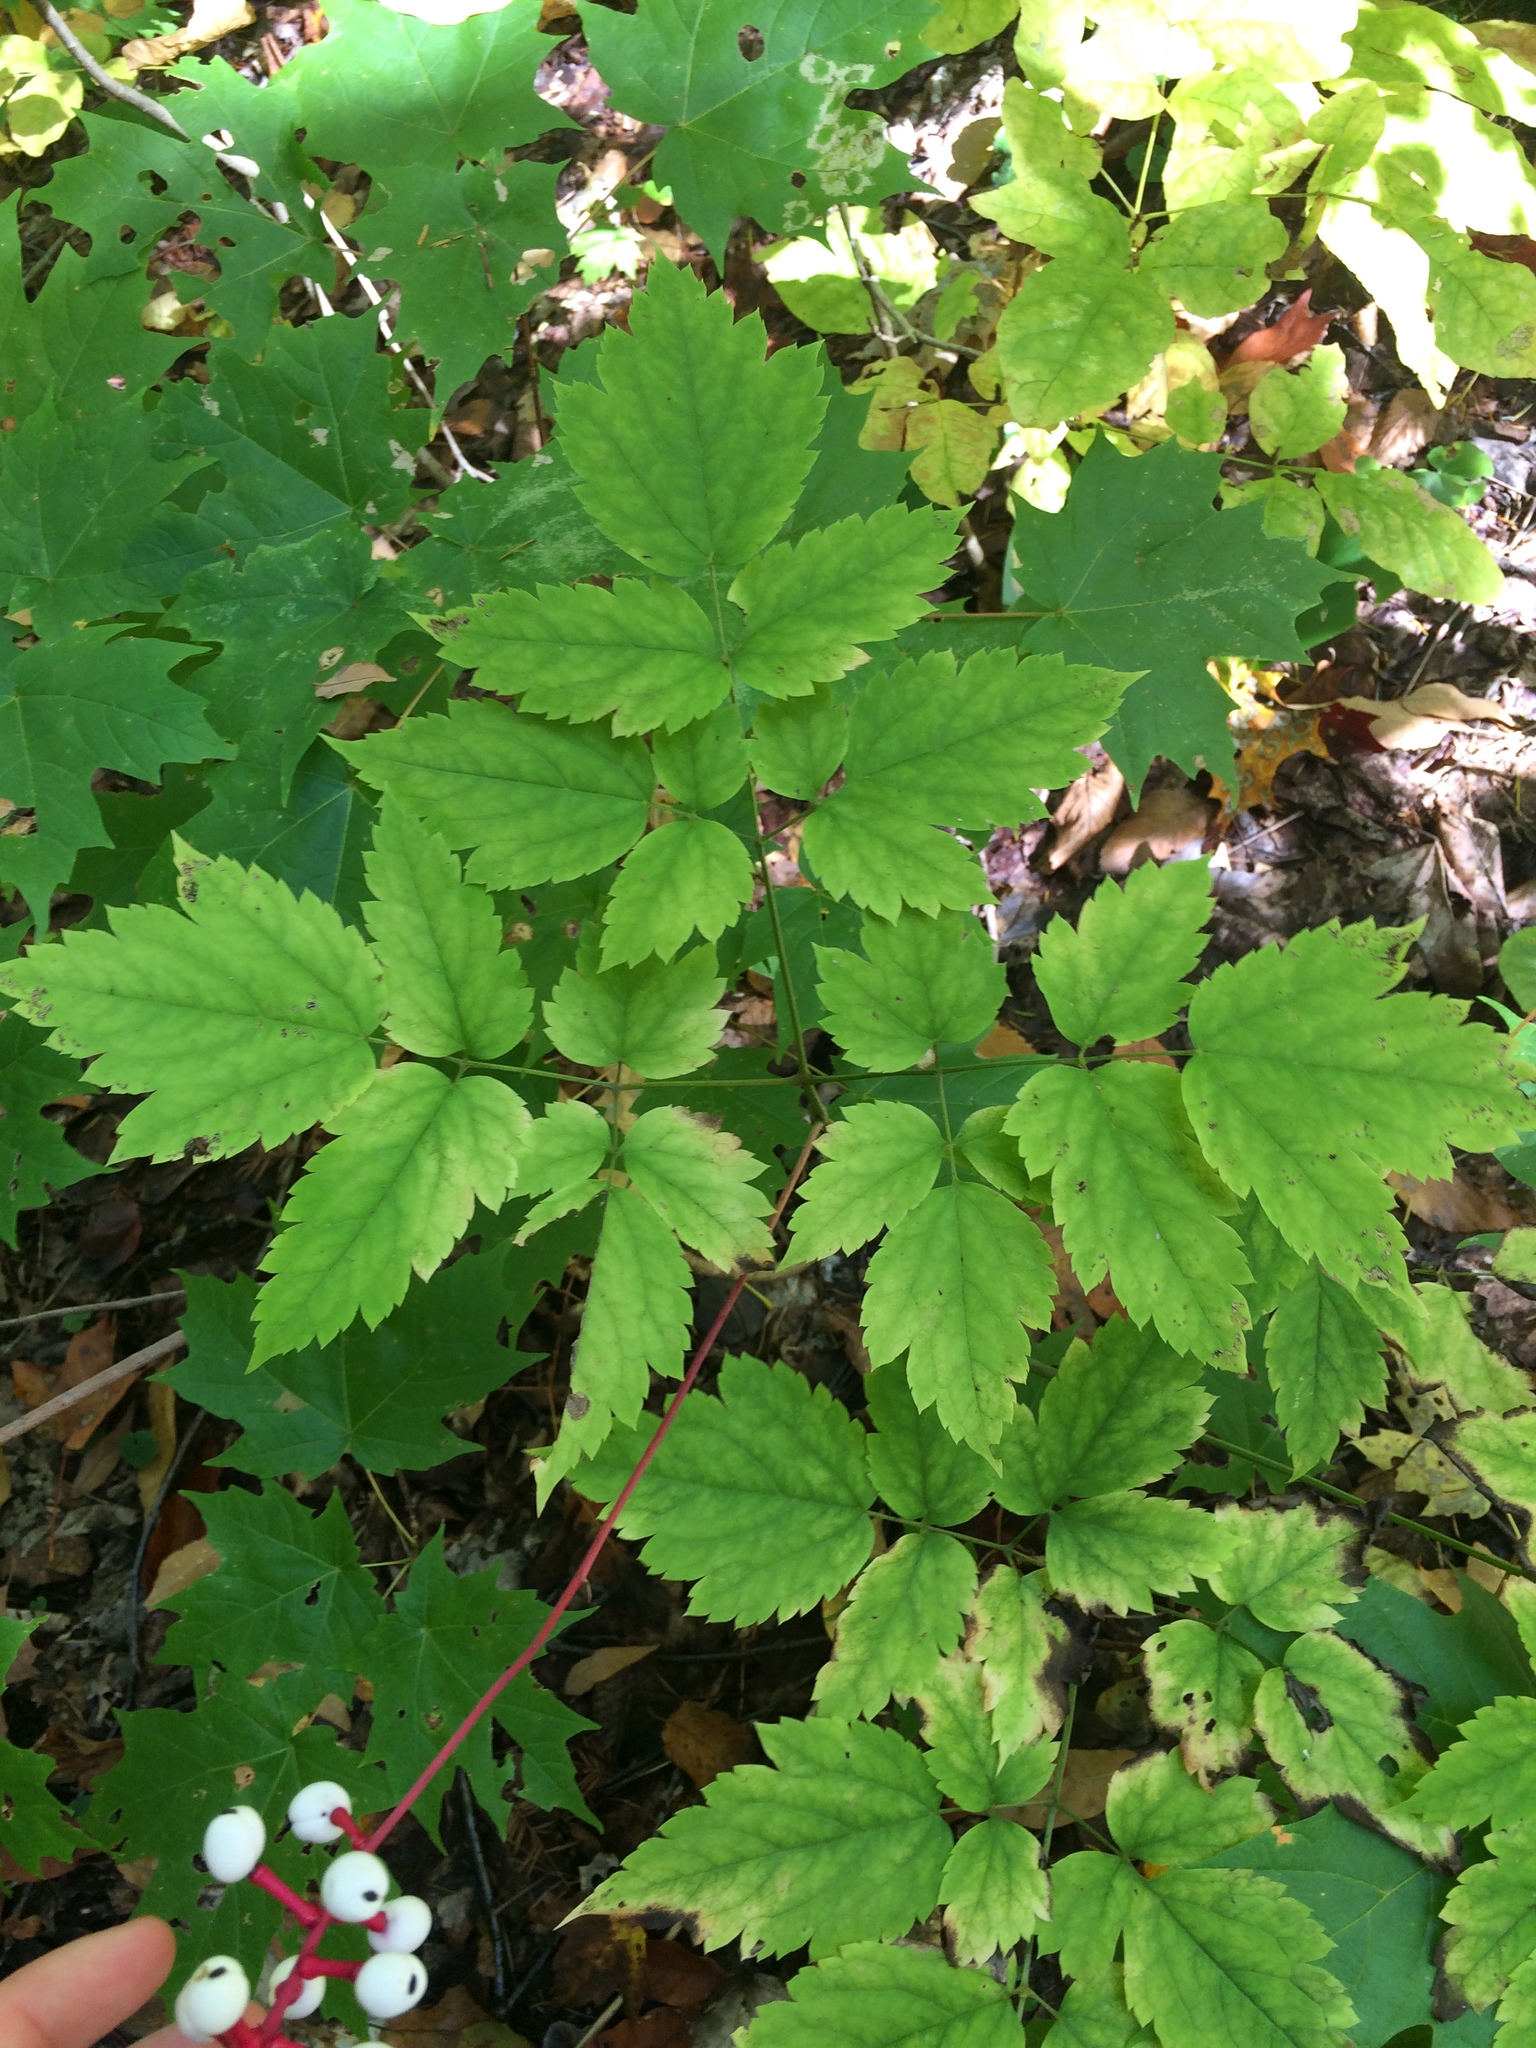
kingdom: Plantae
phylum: Tracheophyta
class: Magnoliopsida
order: Ranunculales
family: Ranunculaceae
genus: Actaea
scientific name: Actaea pachypoda
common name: Doll's-eyes
